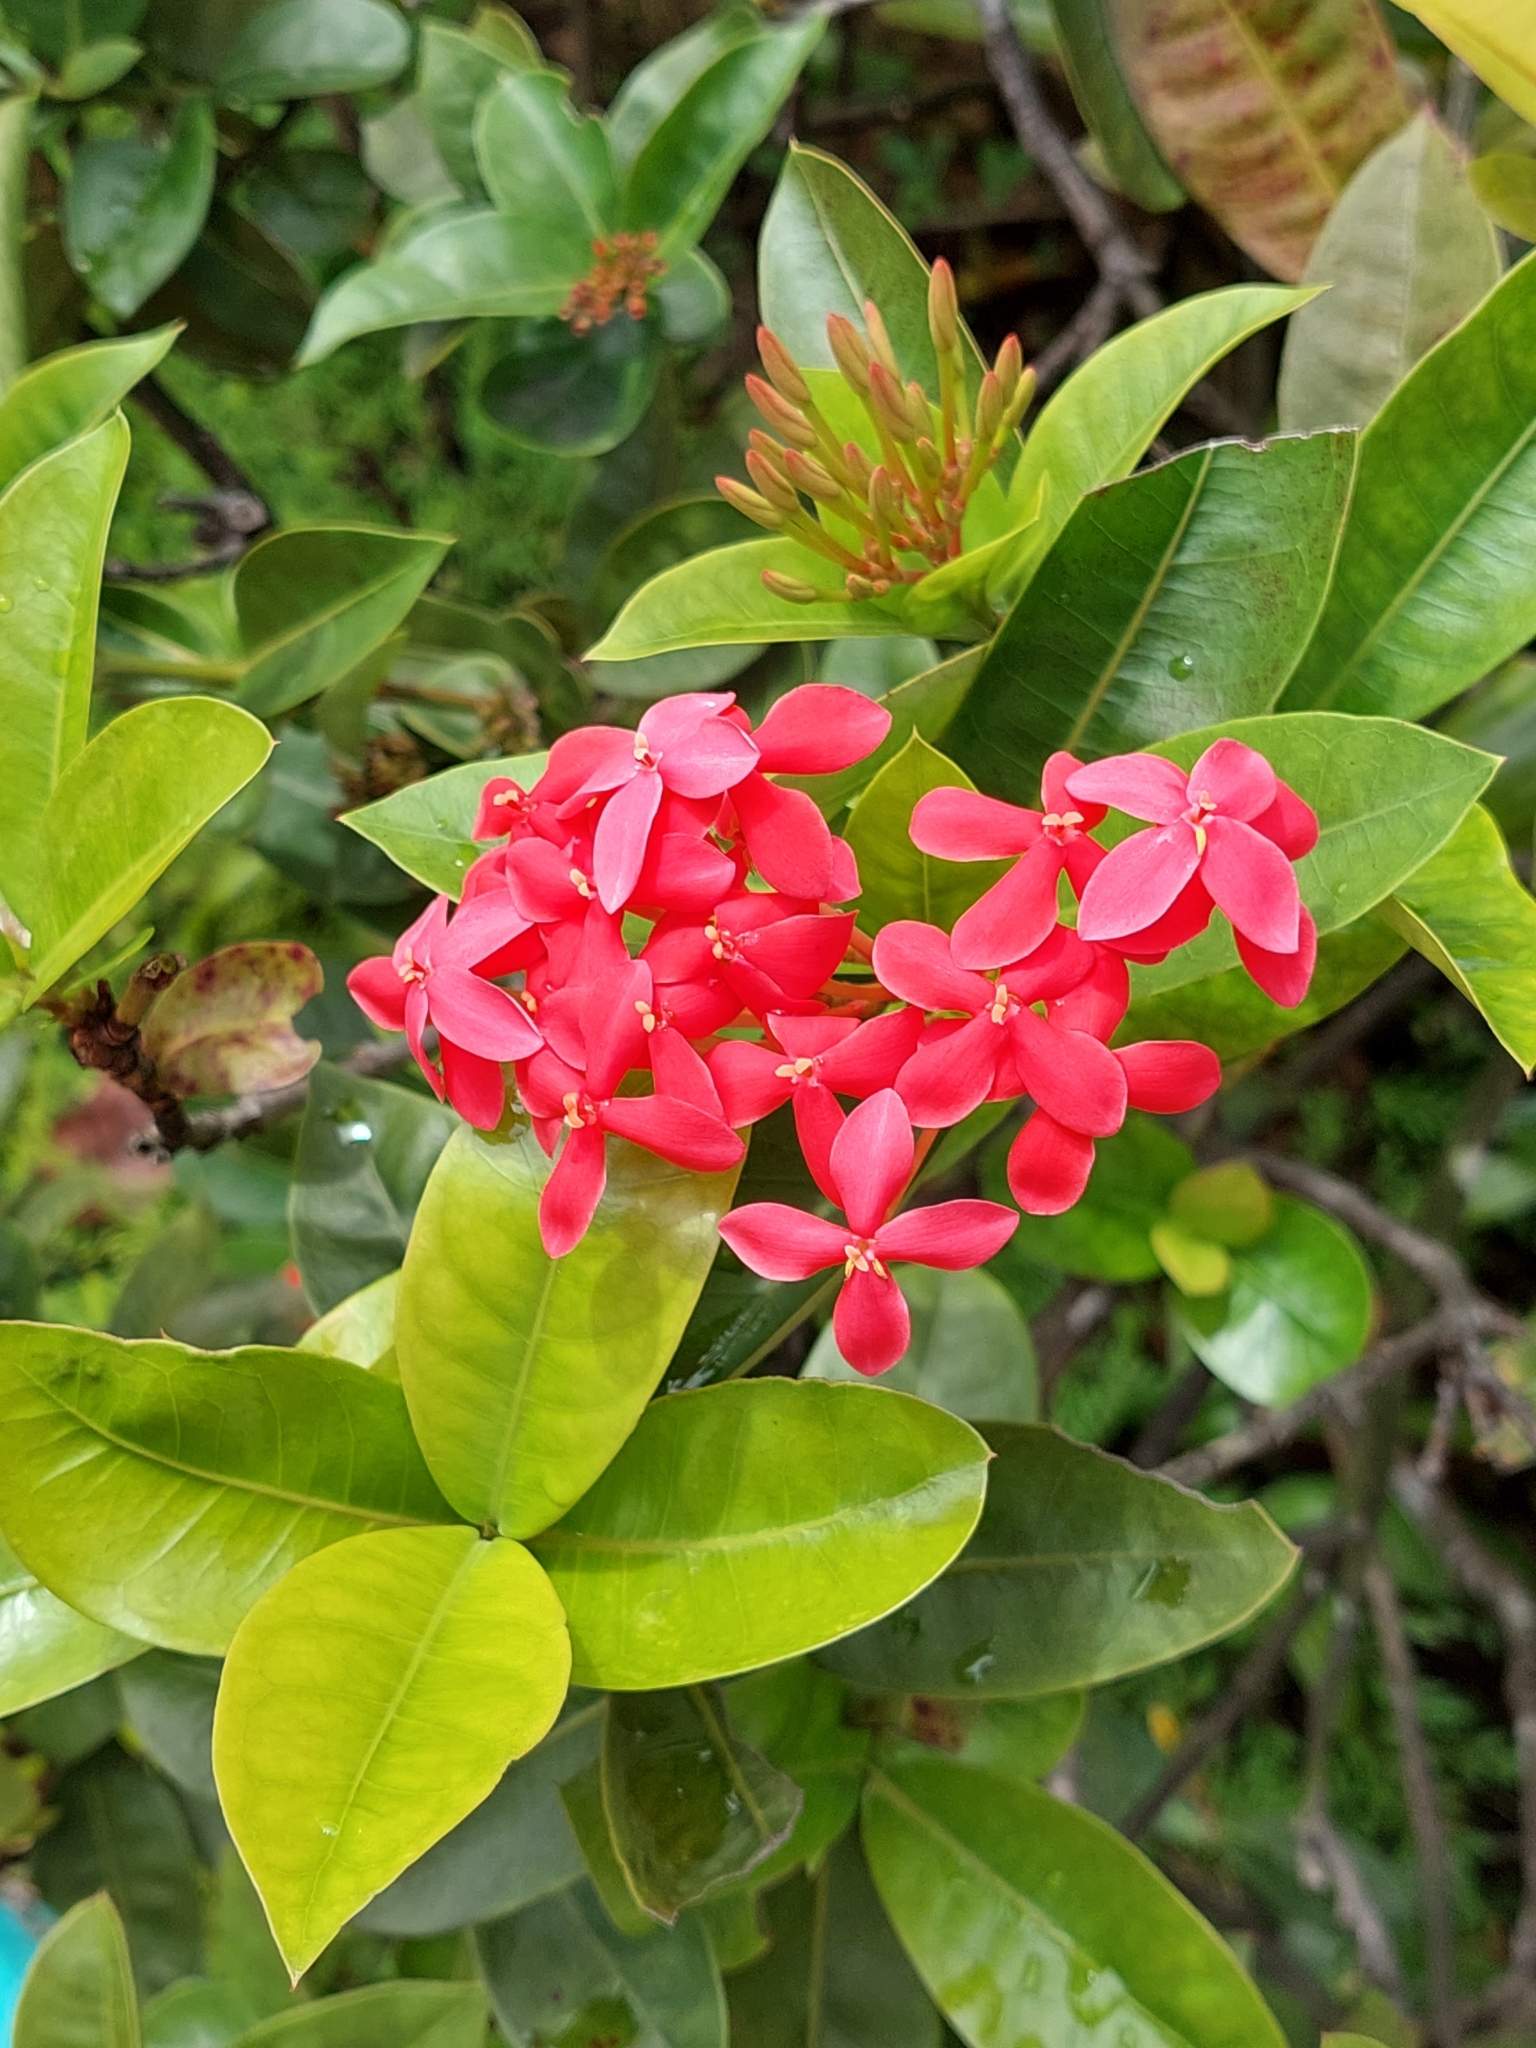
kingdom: Plantae
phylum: Tracheophyta
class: Magnoliopsida
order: Gentianales
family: Rubiaceae
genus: Ixora
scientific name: Ixora coccinea
